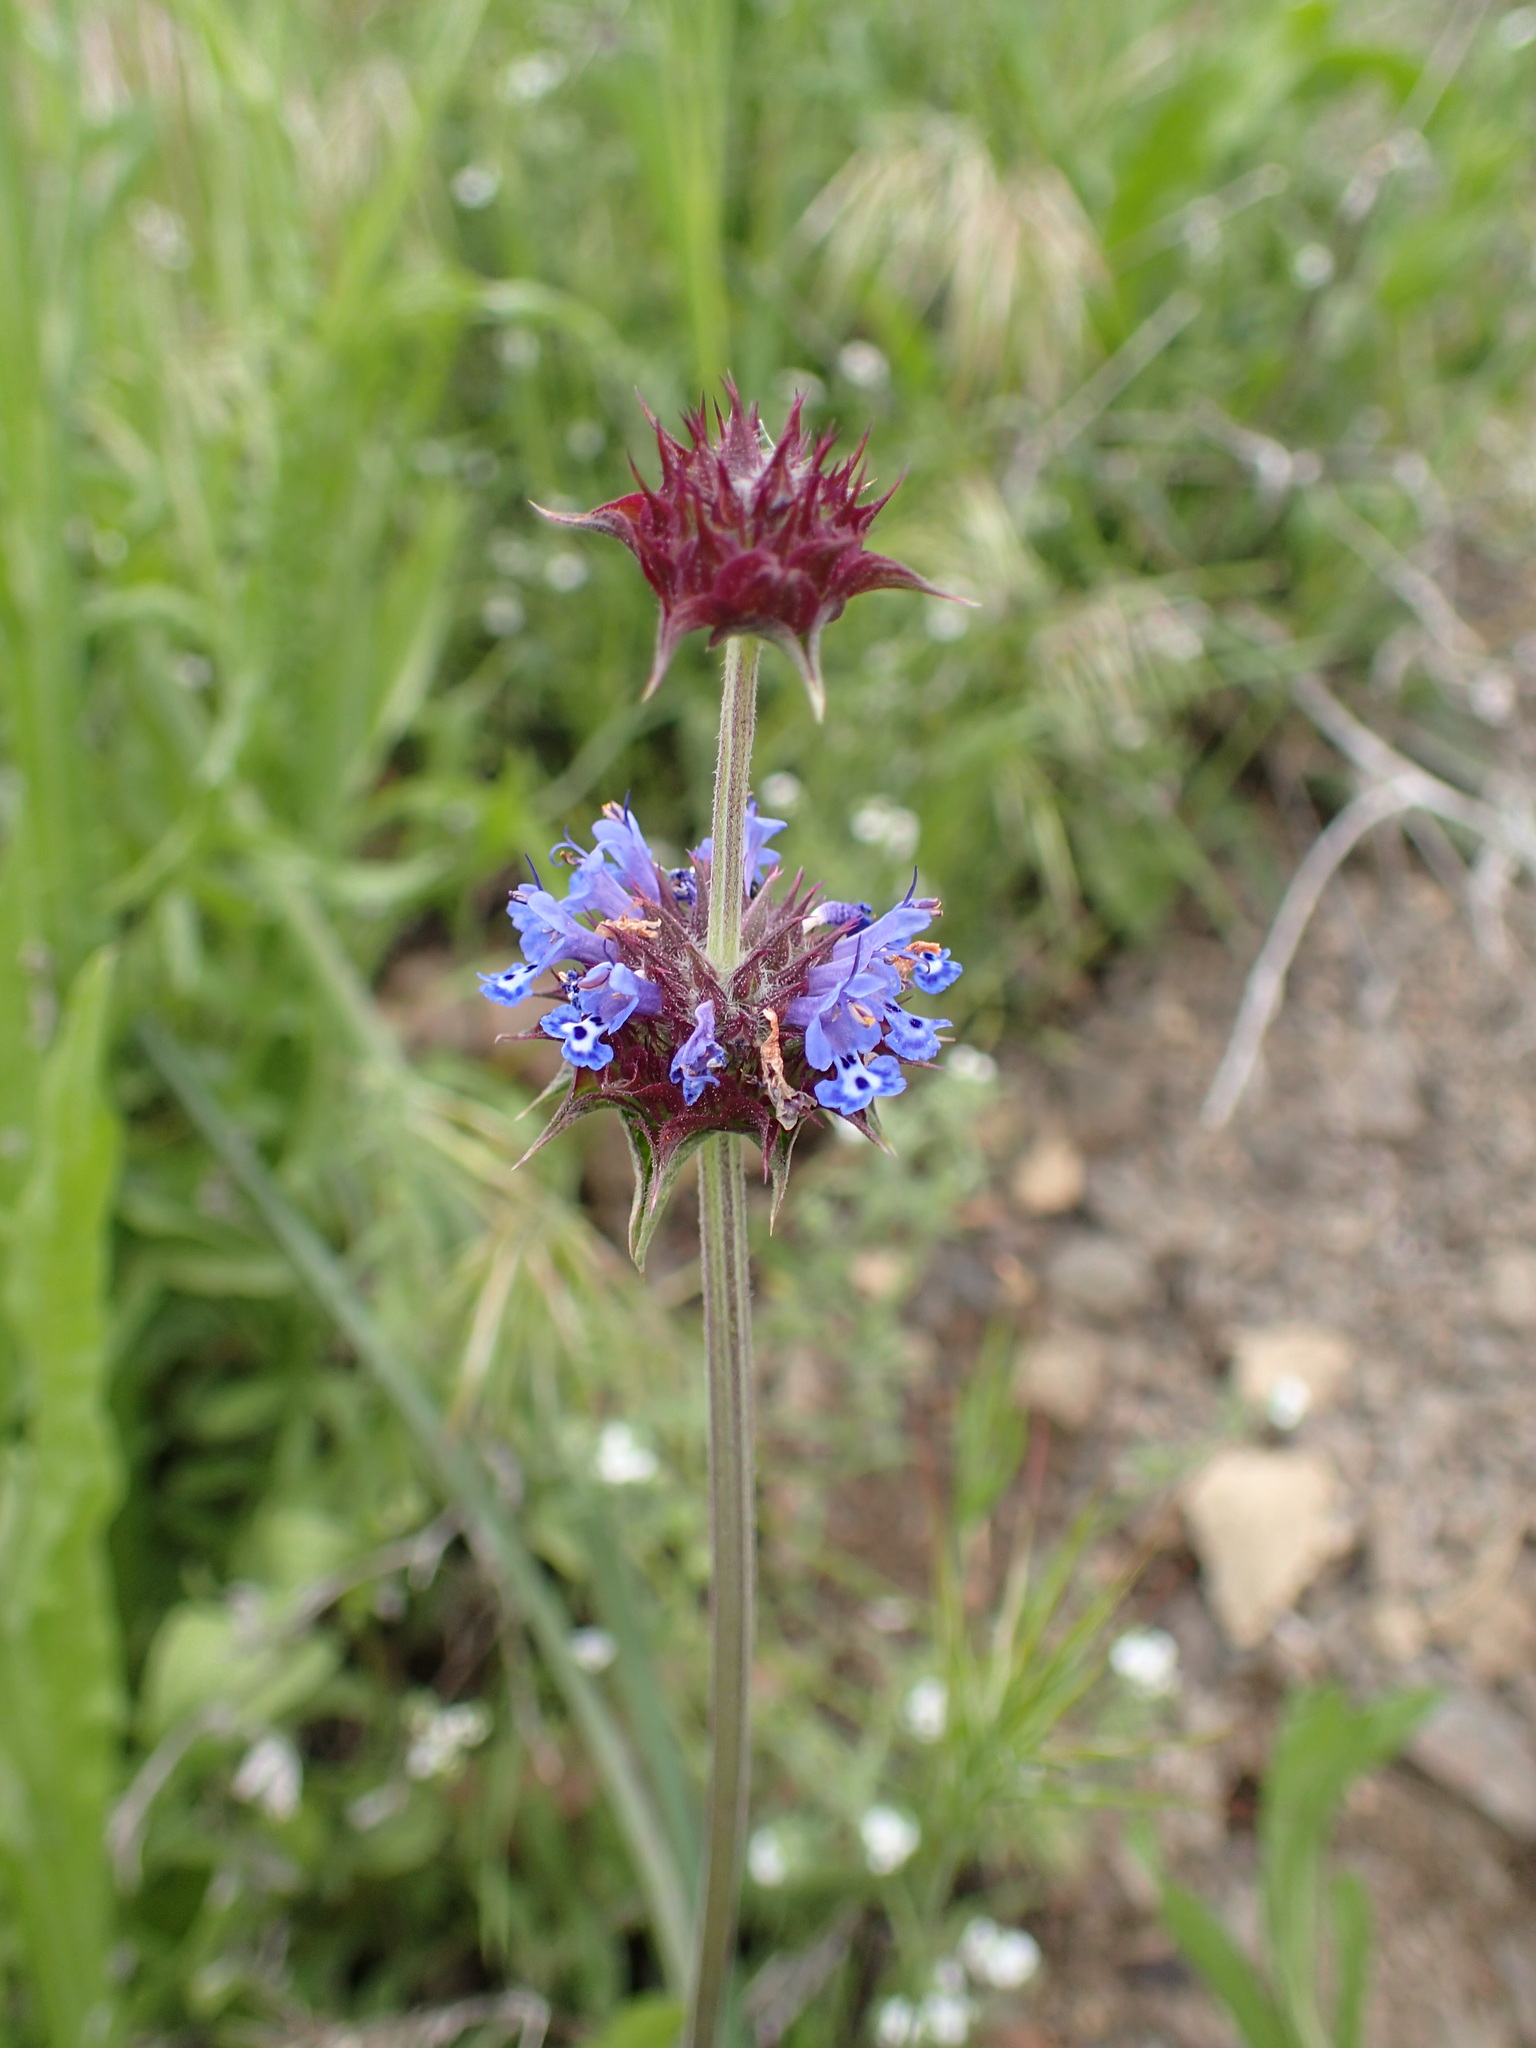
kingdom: Plantae
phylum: Tracheophyta
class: Magnoliopsida
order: Lamiales
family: Lamiaceae
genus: Salvia
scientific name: Salvia columbariae
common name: Chia
